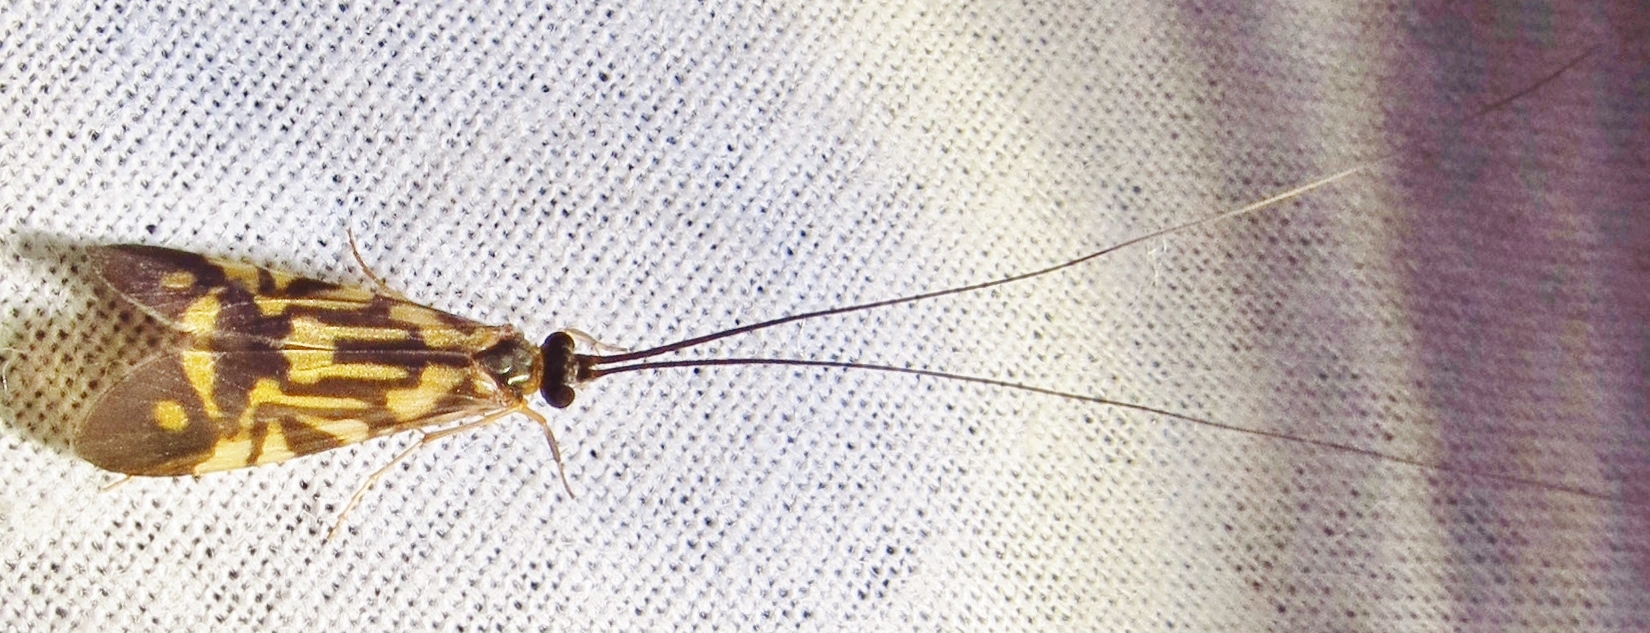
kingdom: Animalia
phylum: Arthropoda
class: Insecta
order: Trichoptera
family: Hydropsychidae
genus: Macrostemum
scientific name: Macrostemum carolina
